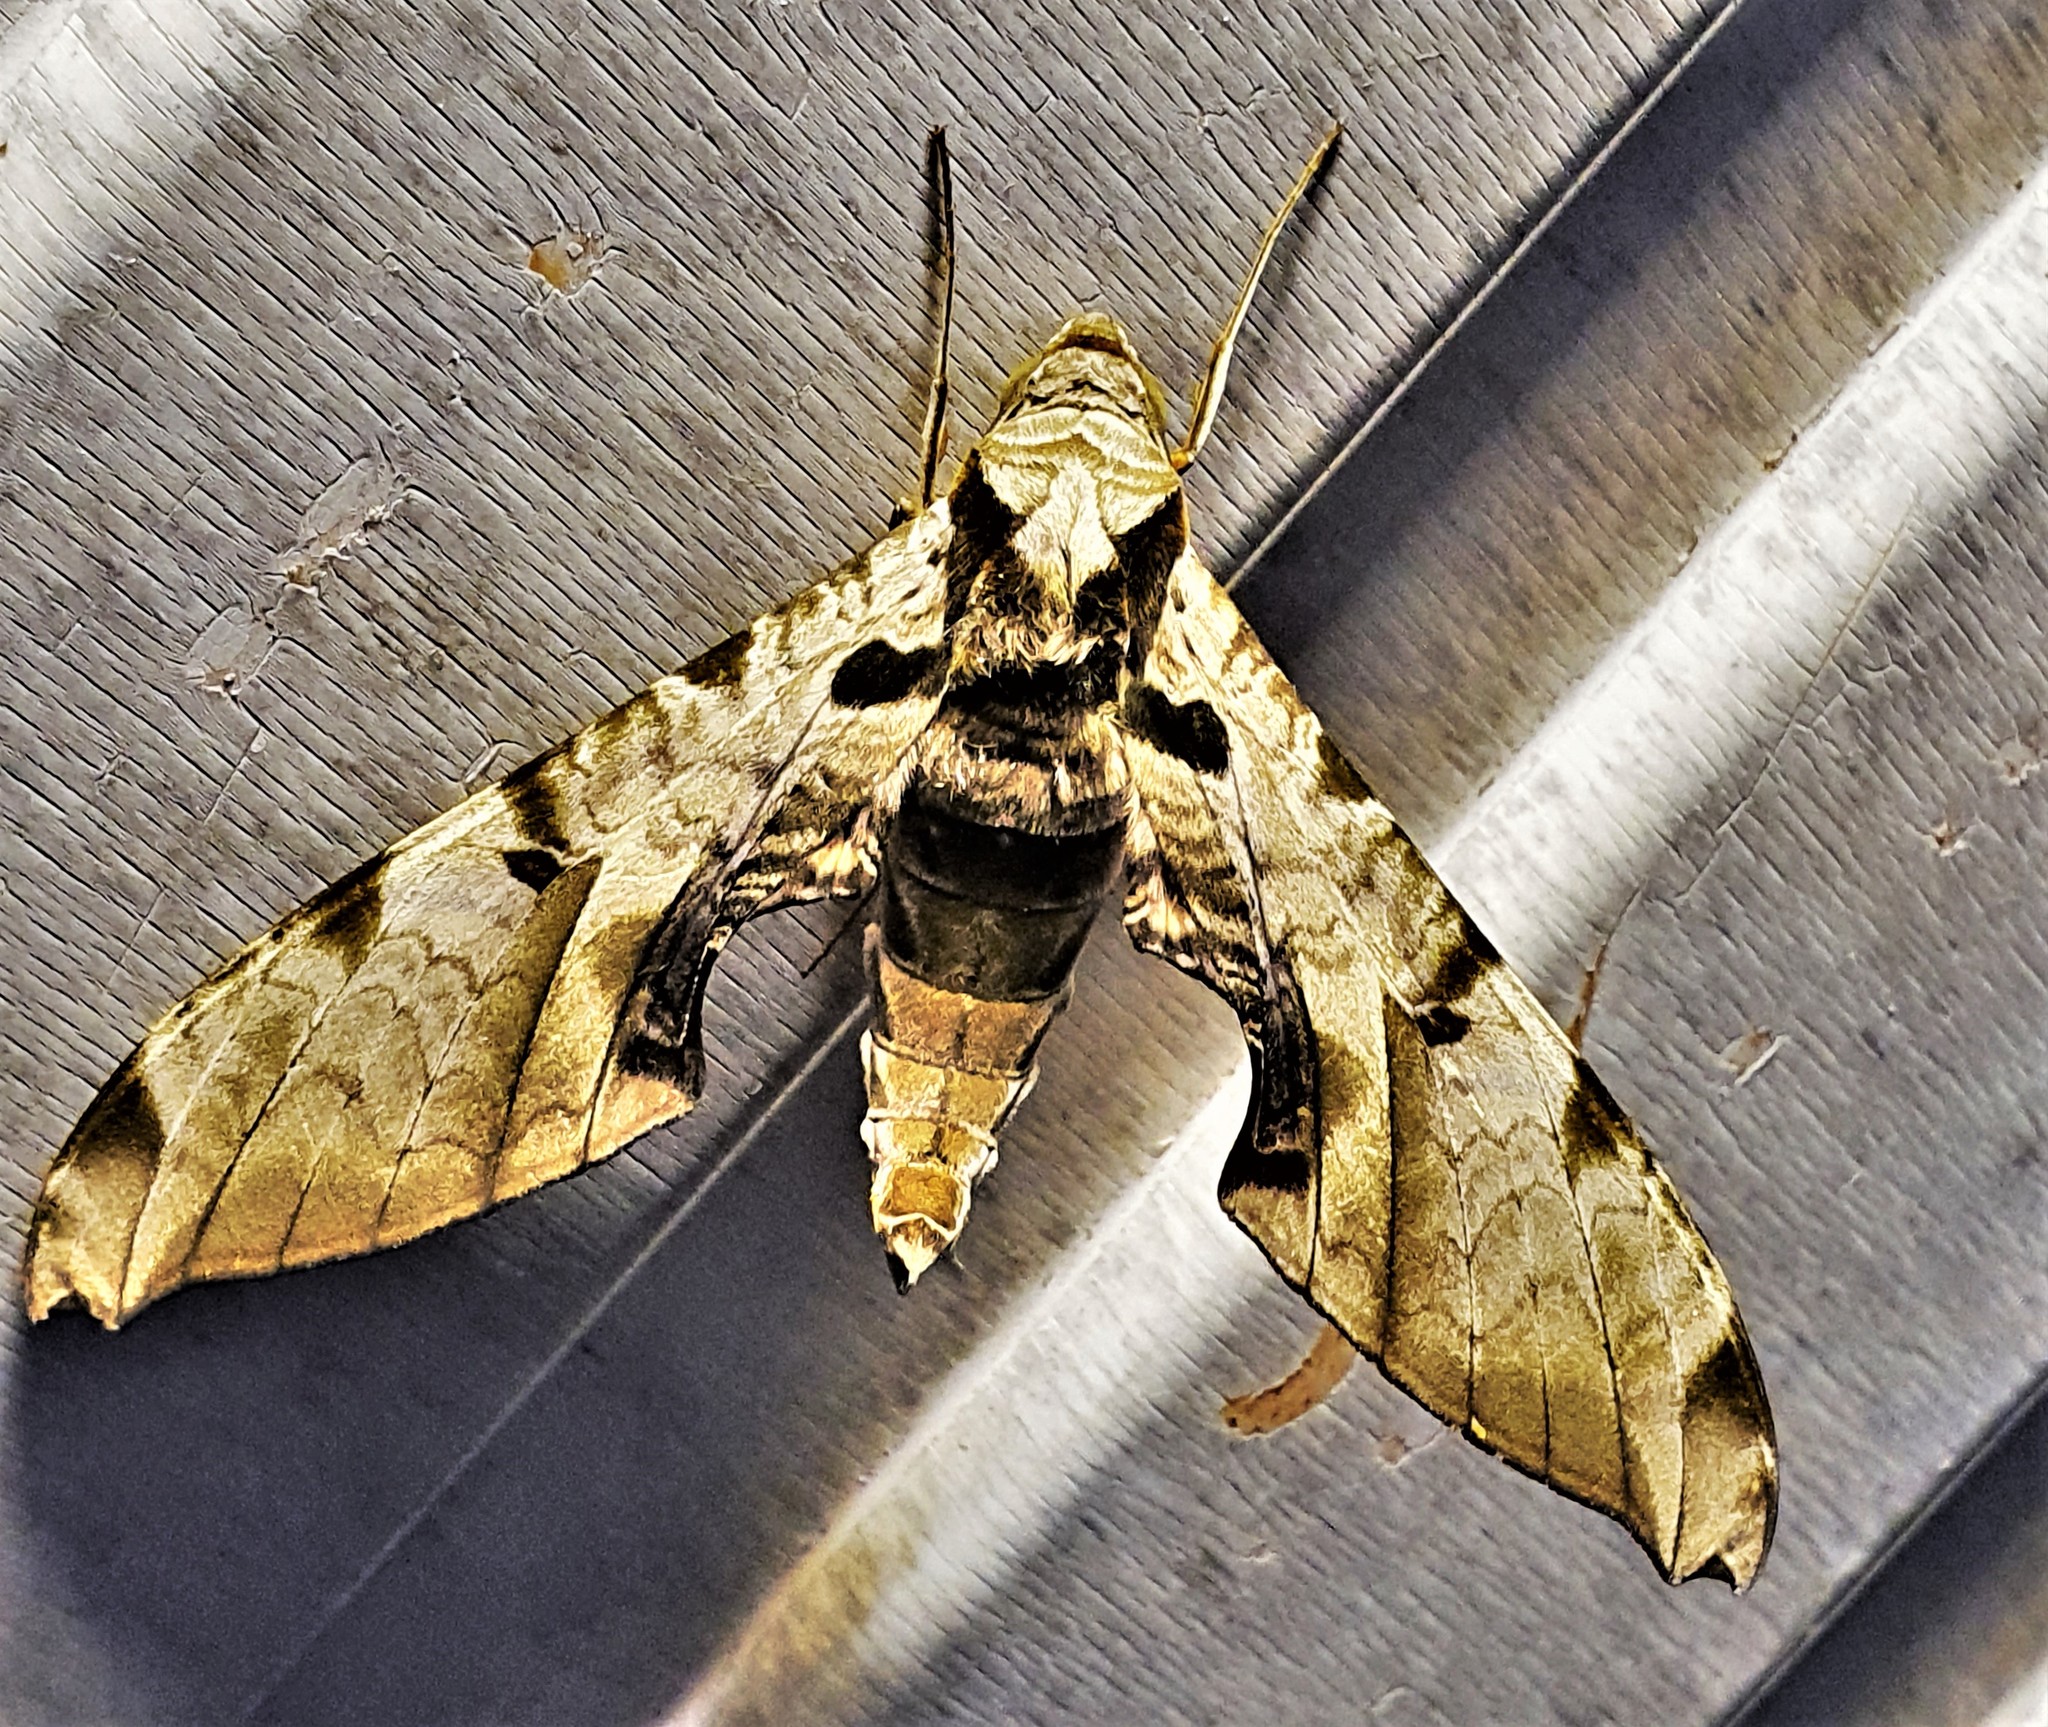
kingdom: Animalia
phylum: Arthropoda
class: Insecta
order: Lepidoptera
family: Sphingidae
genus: Protambulyx
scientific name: Protambulyx eurycles
